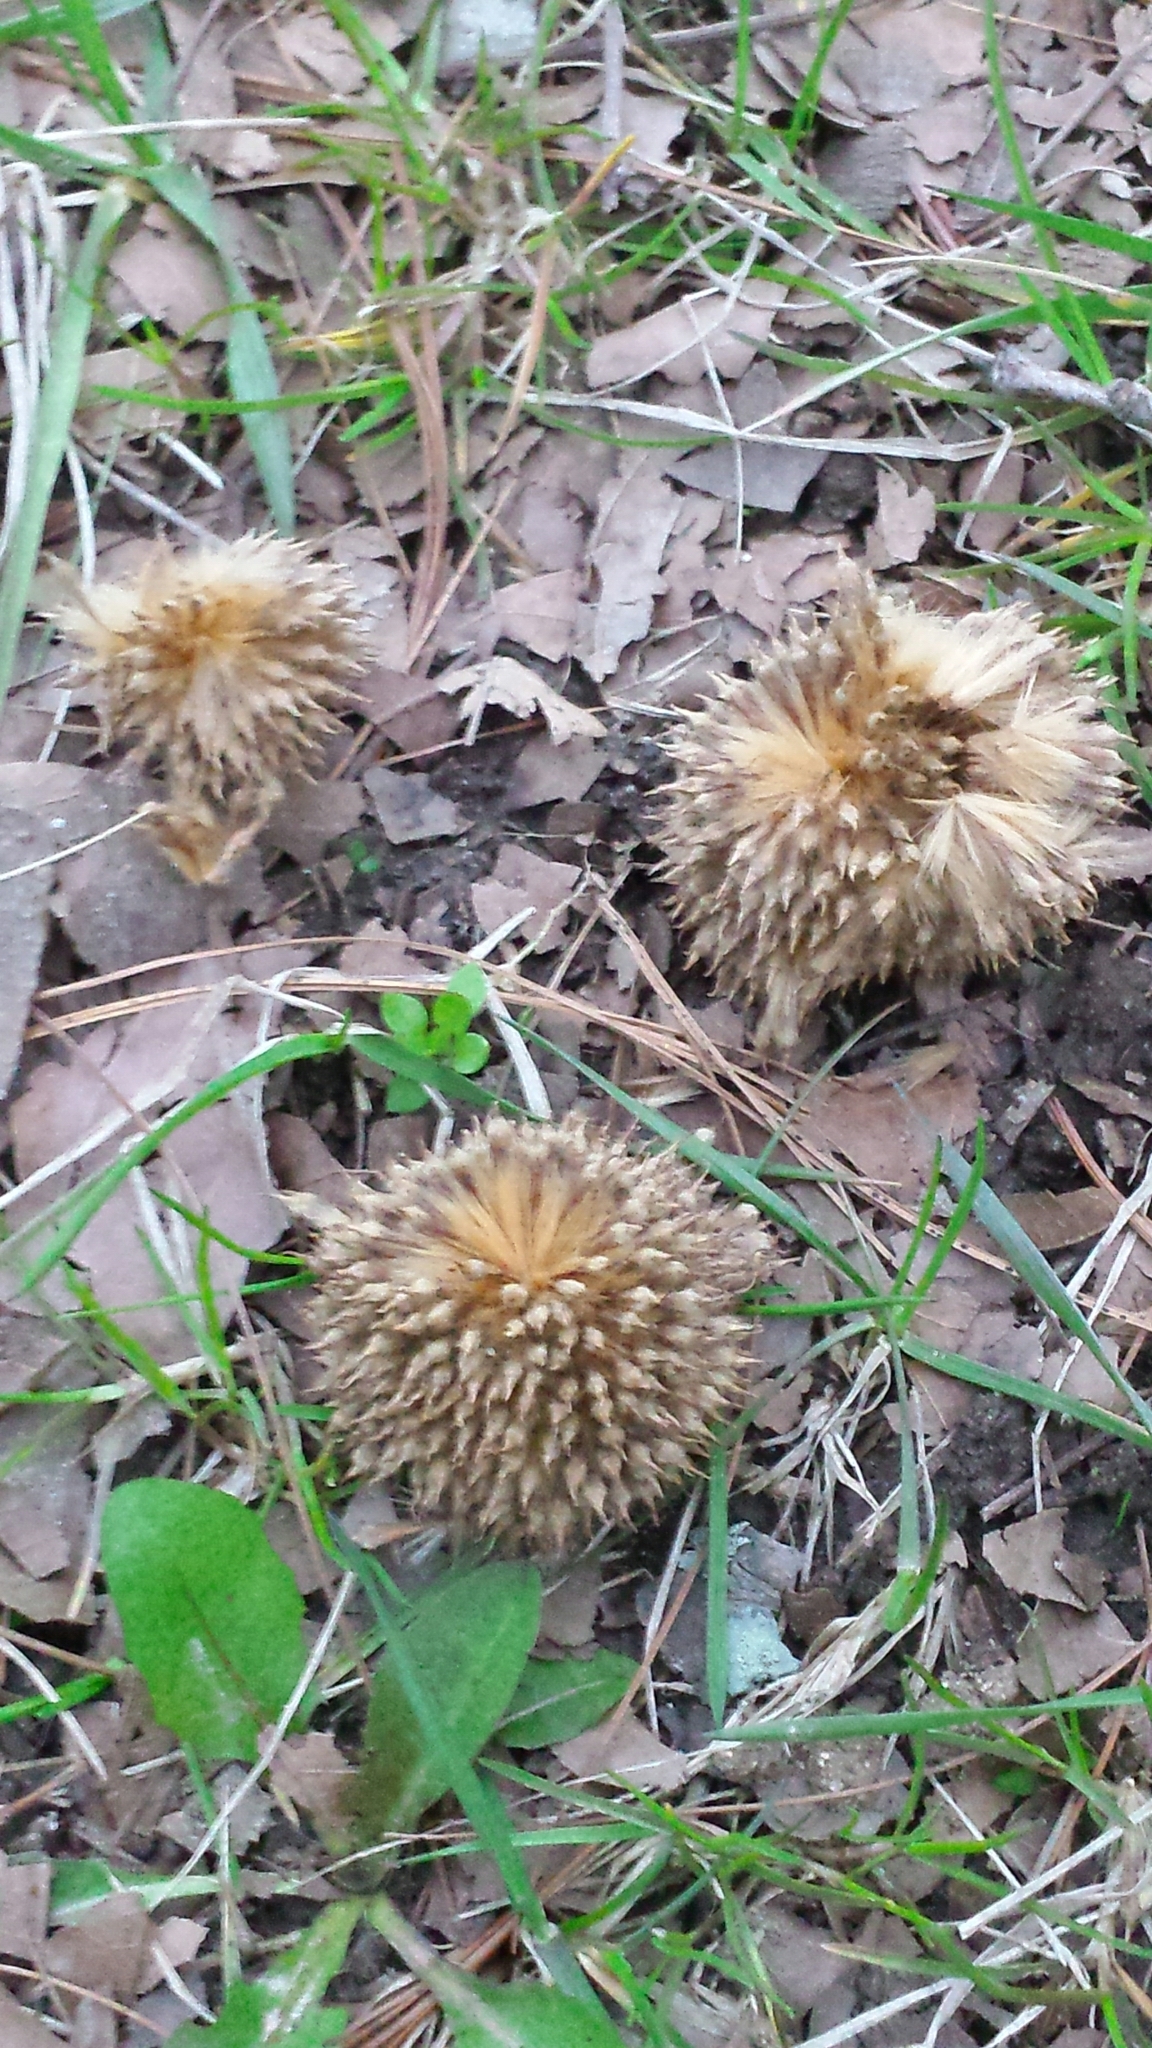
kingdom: Plantae
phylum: Tracheophyta
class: Magnoliopsida
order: Proteales
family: Platanaceae
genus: Platanus
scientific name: Platanus occidentalis
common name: American sycamore
